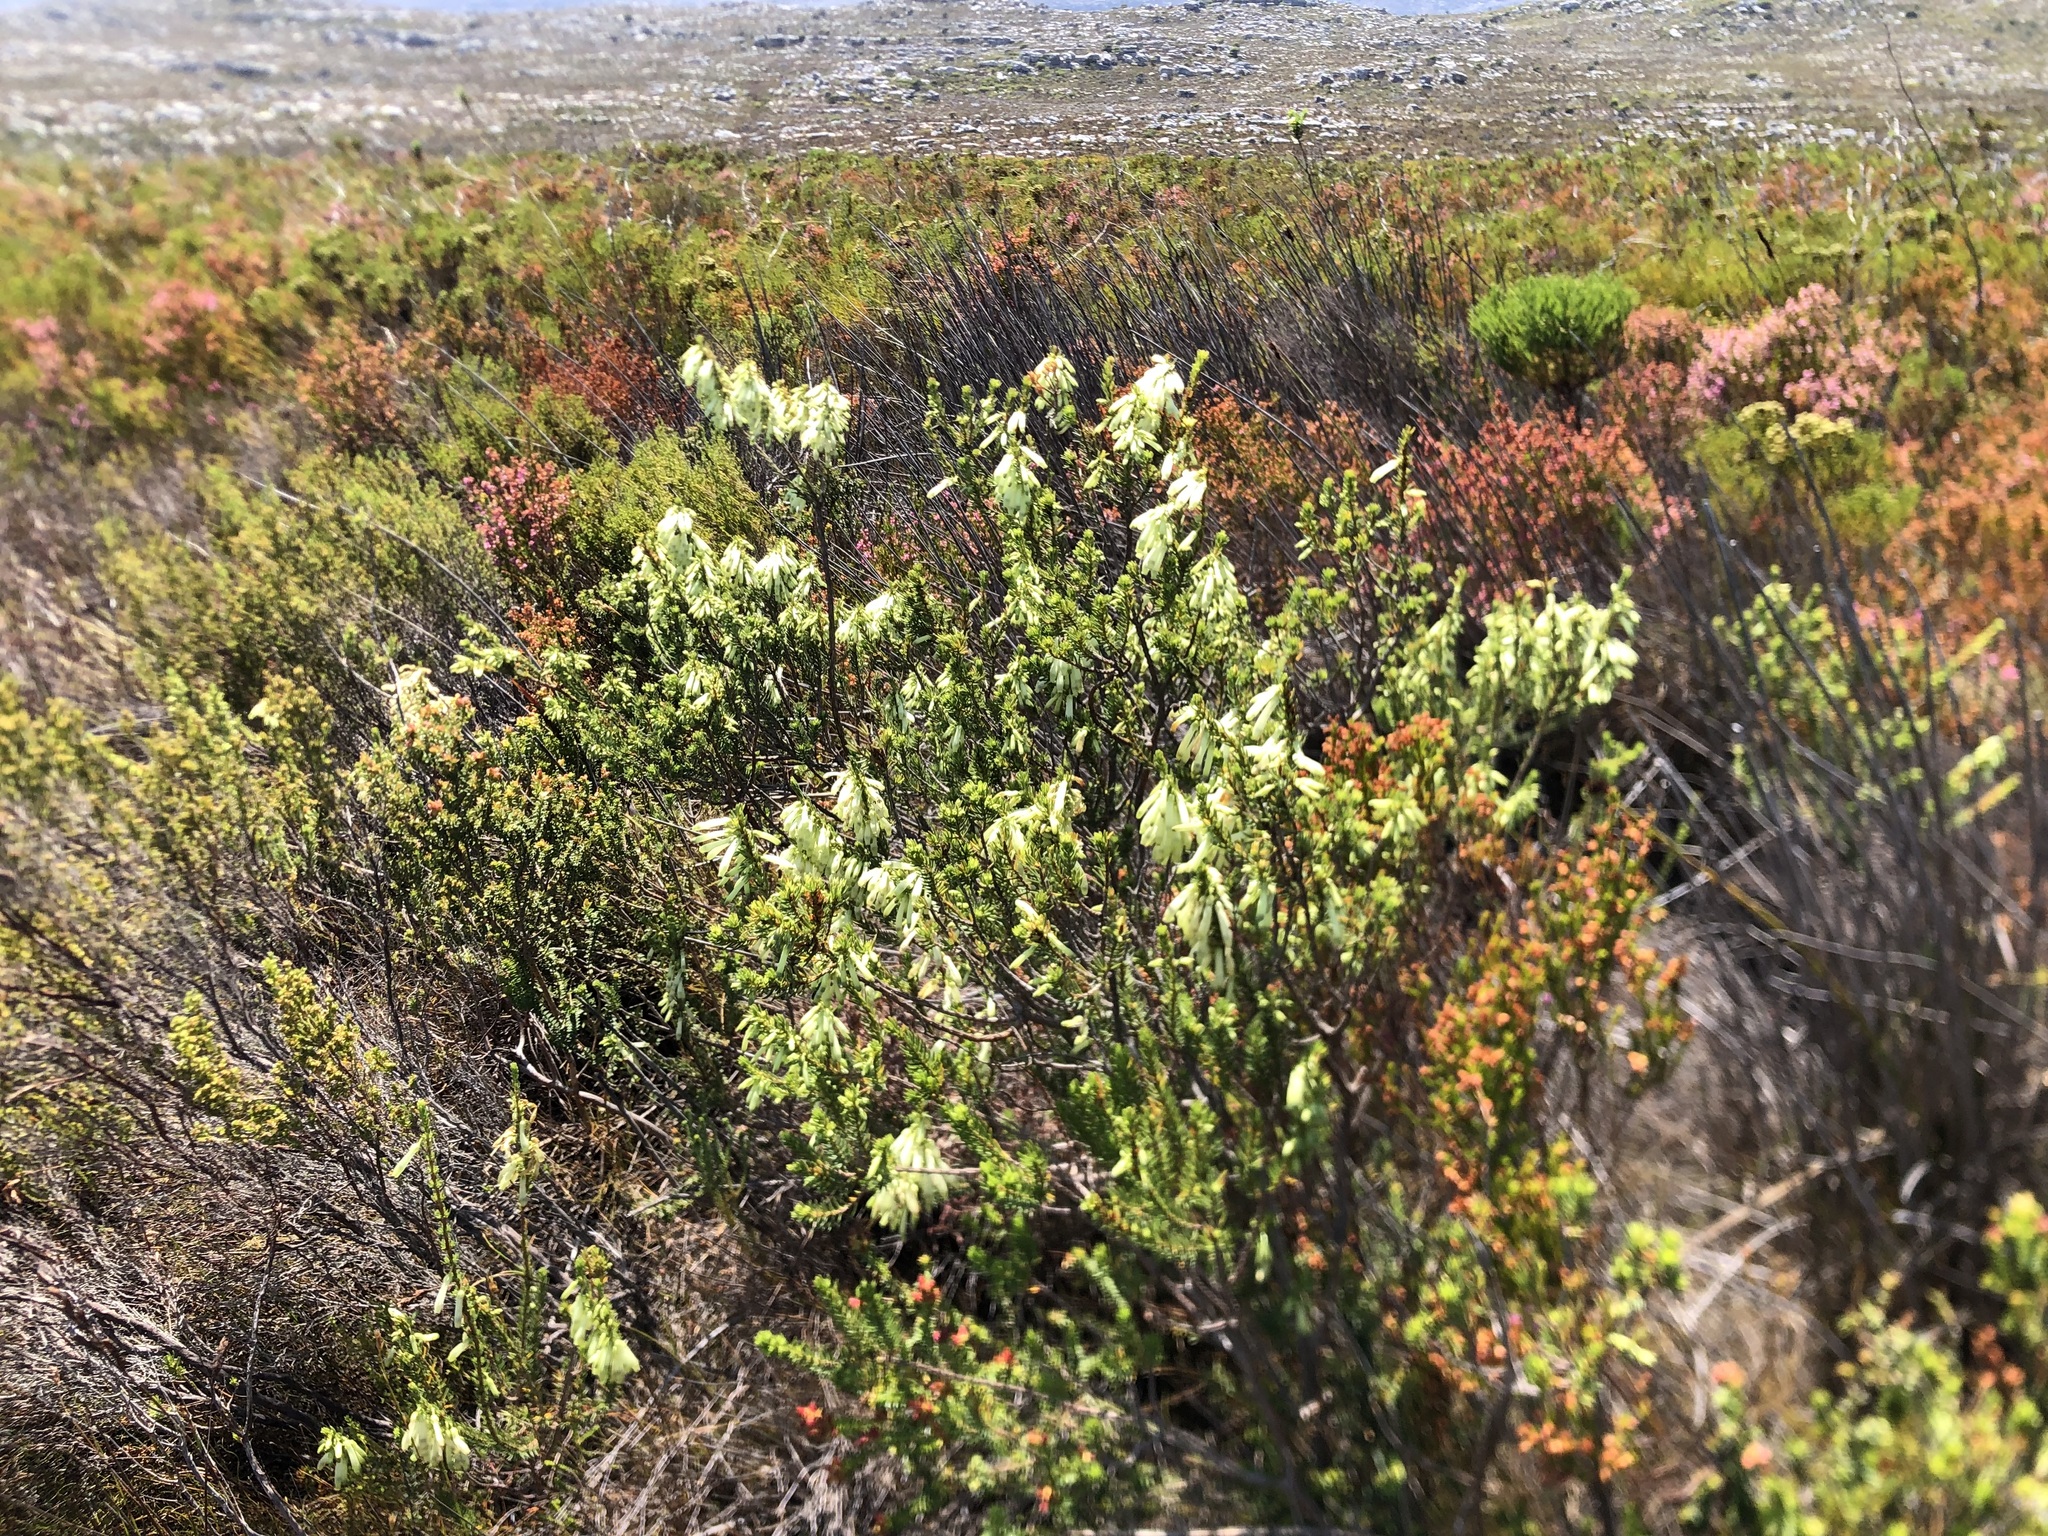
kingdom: Plantae
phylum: Tracheophyta
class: Magnoliopsida
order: Ericales
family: Ericaceae
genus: Erica
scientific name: Erica mammosa
